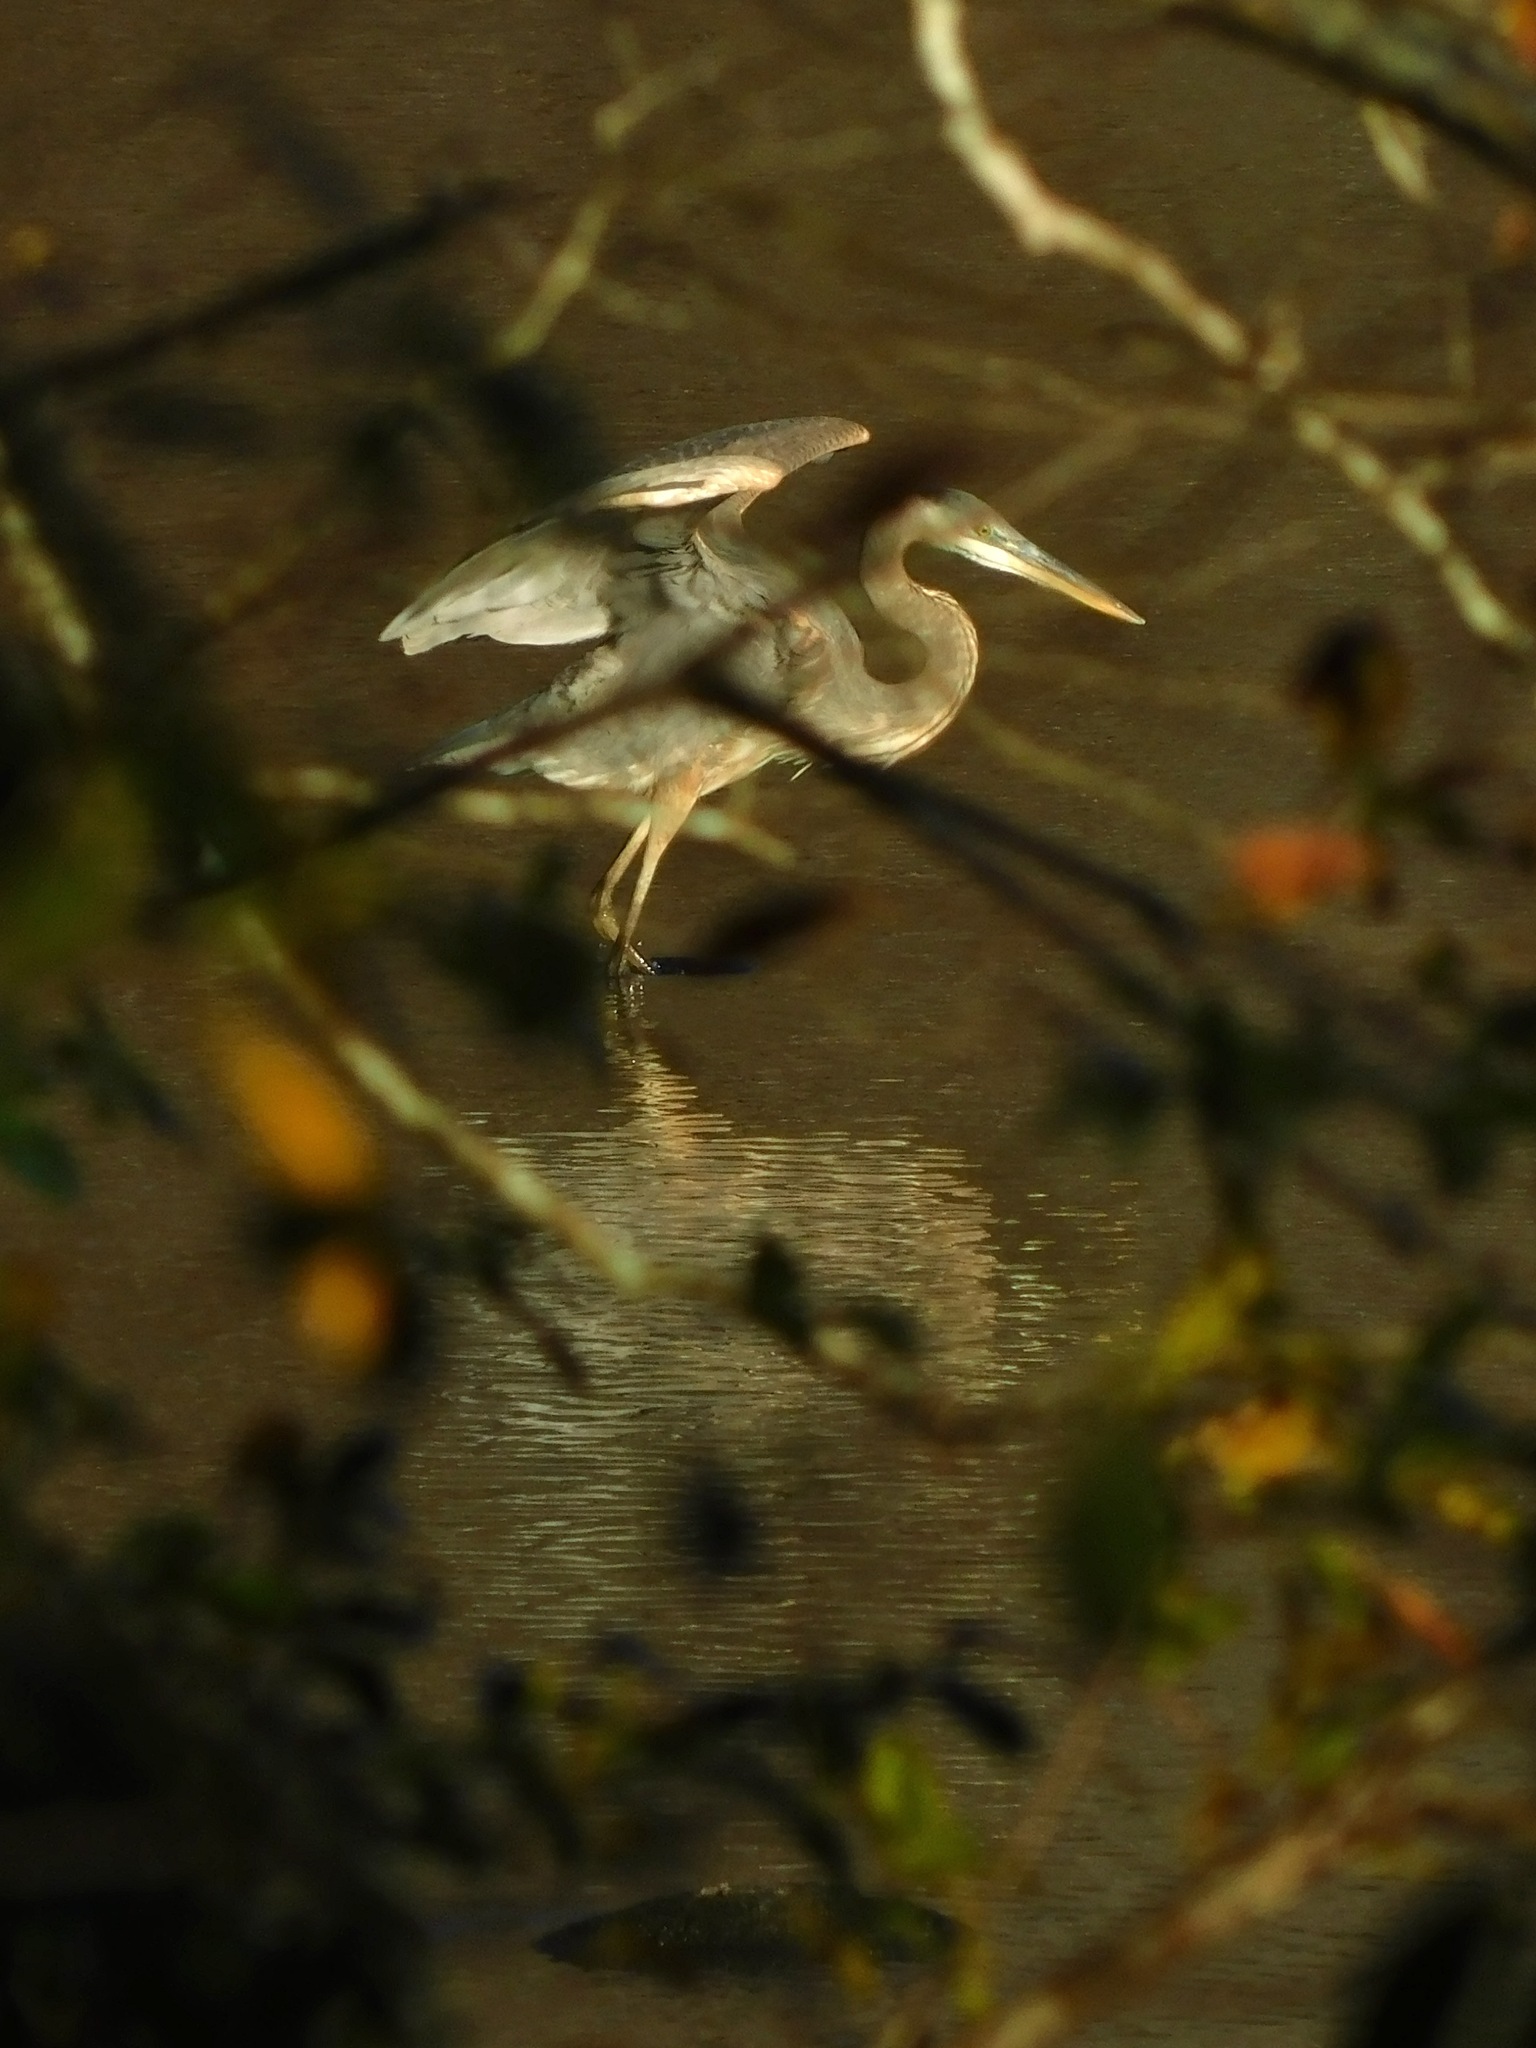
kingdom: Animalia
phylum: Chordata
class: Aves
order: Pelecaniformes
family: Ardeidae
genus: Ardea
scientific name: Ardea herodias
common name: Great blue heron
